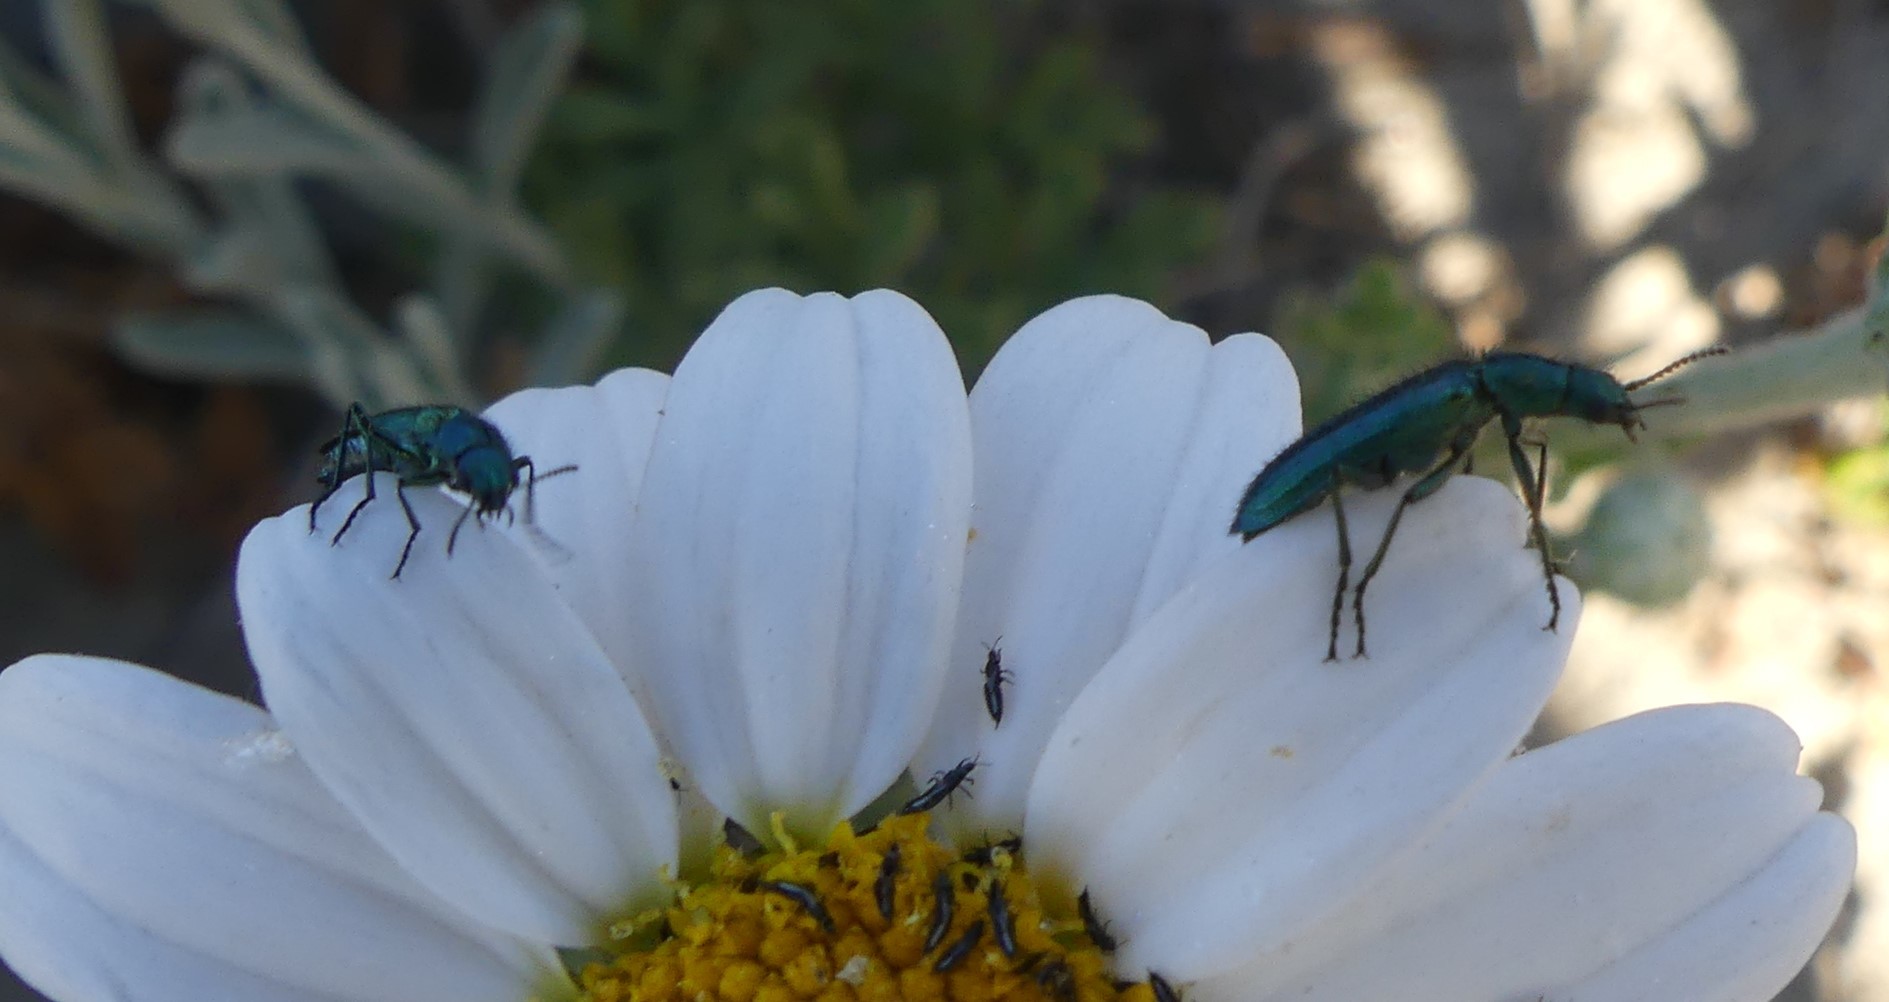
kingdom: Animalia
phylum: Arthropoda
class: Insecta
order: Coleoptera
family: Dasytidae
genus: Psilothrix
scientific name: Psilothrix viridicoerulea
